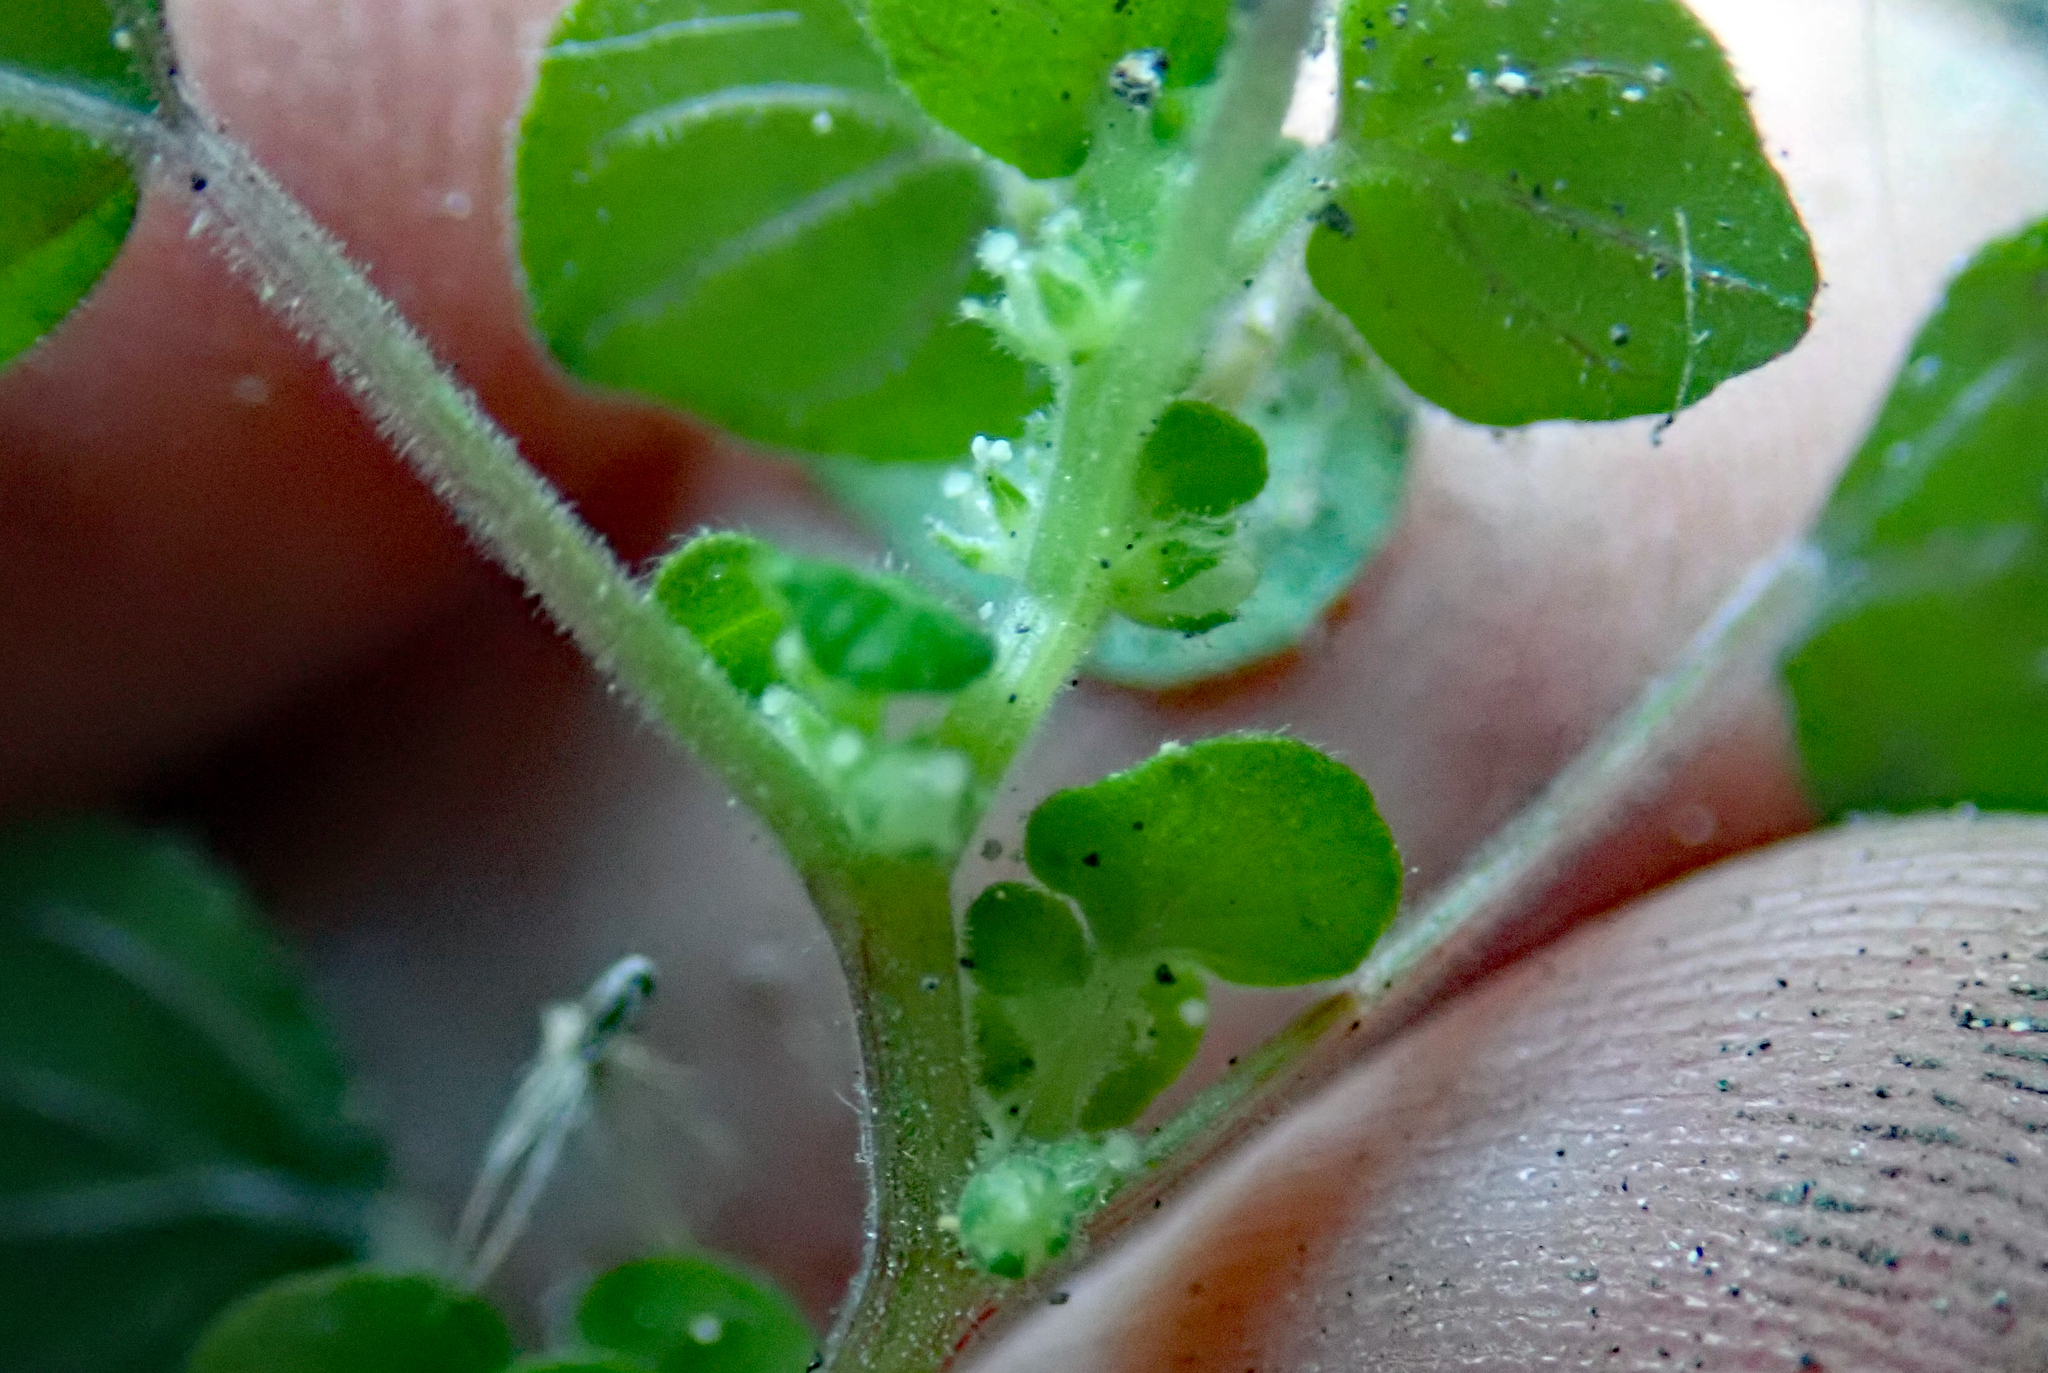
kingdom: Plantae
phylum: Tracheophyta
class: Magnoliopsida
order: Rosales
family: Urticaceae
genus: Parietaria
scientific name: Parietaria debilis
